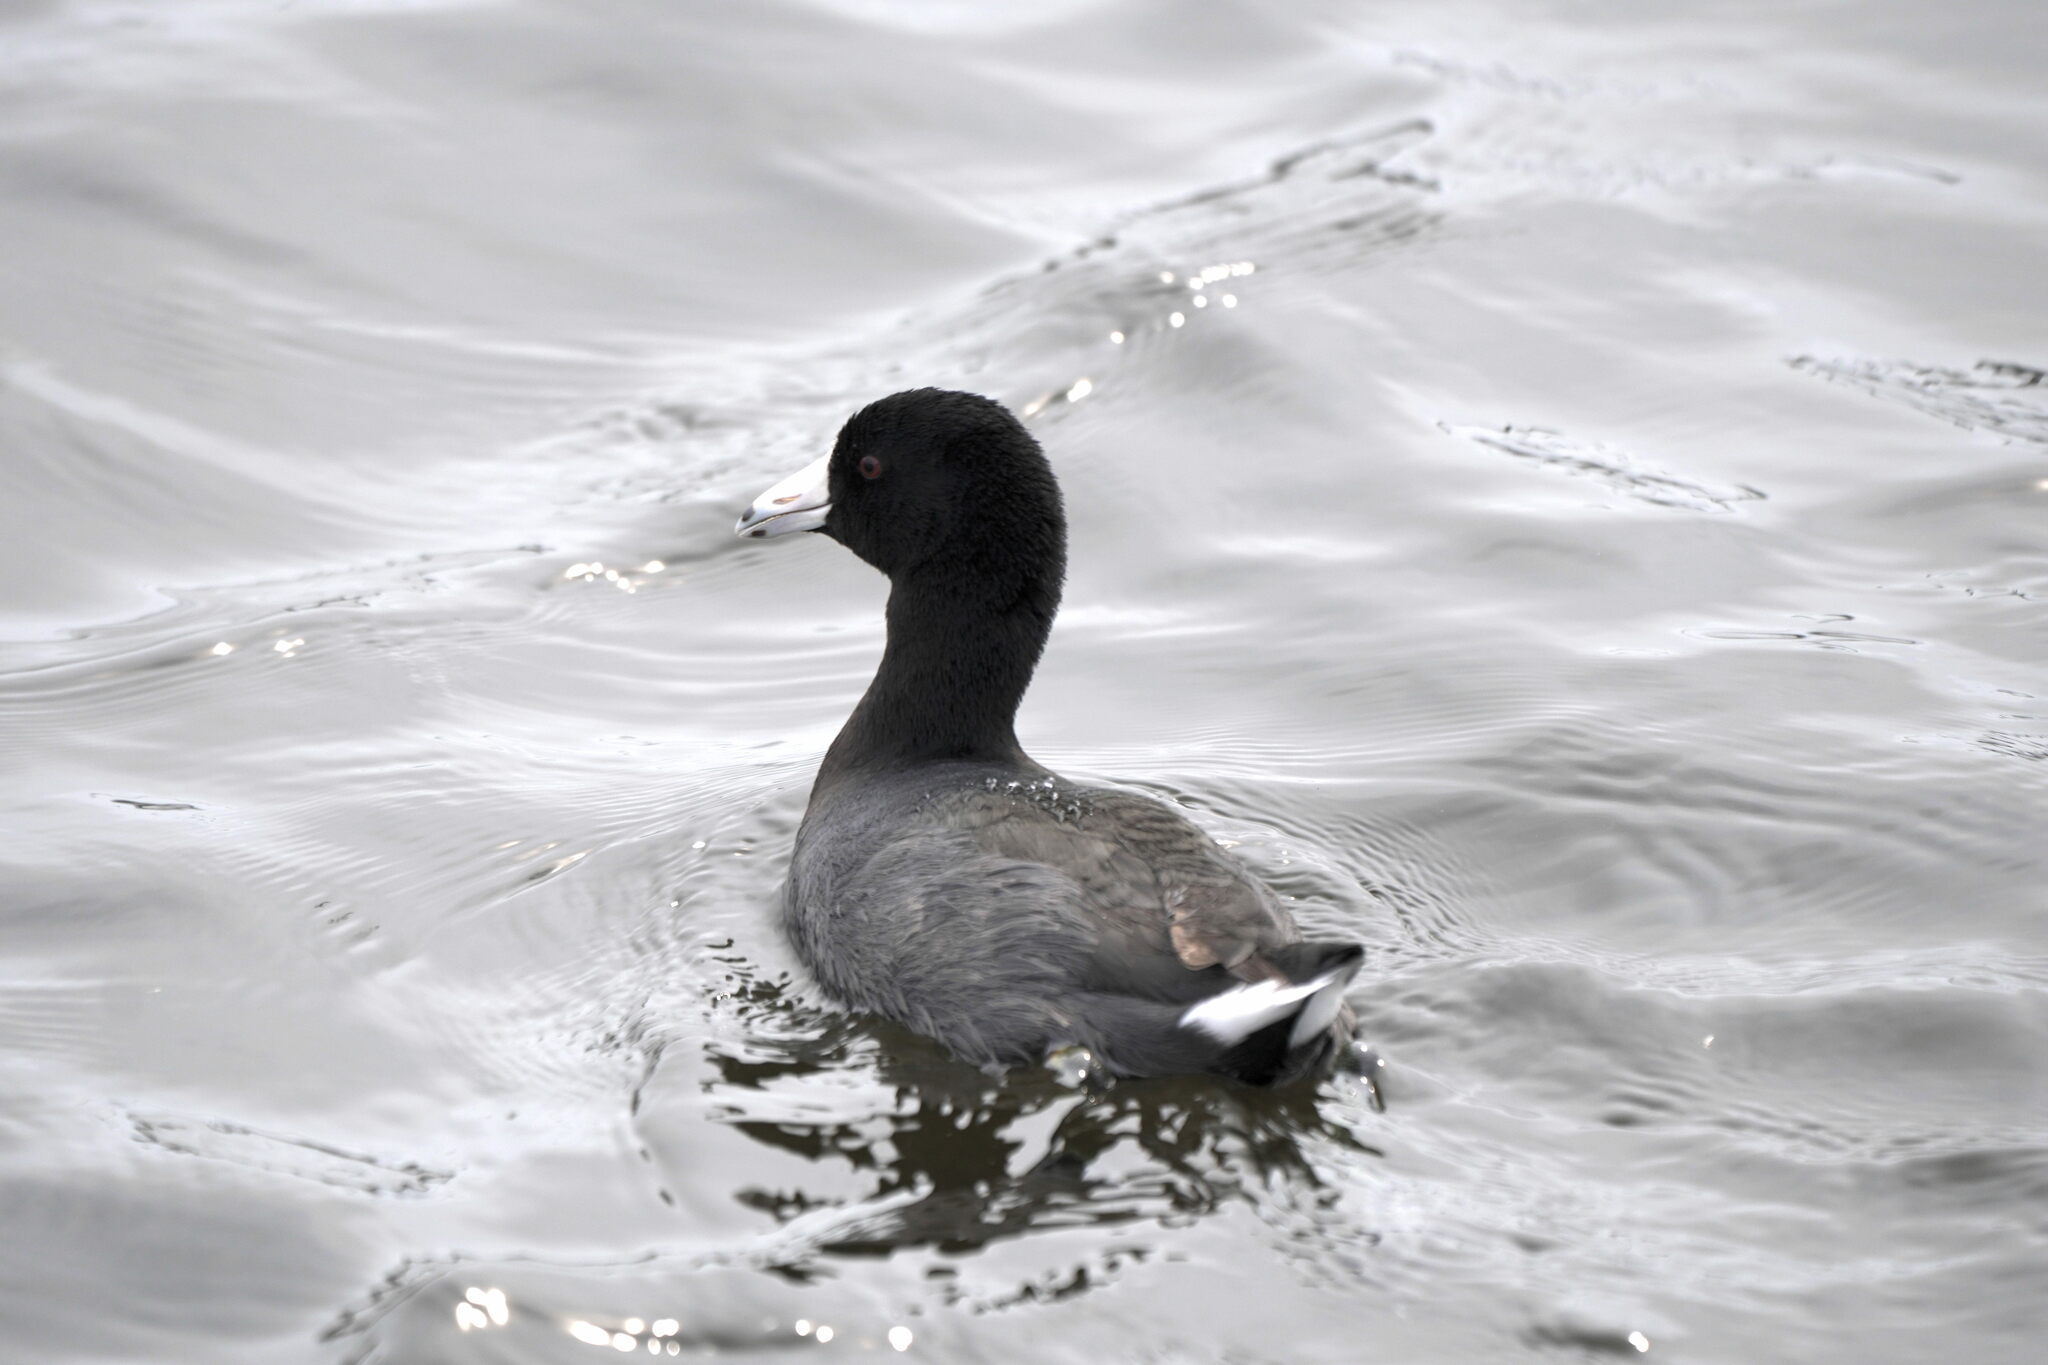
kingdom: Animalia
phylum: Chordata
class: Aves
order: Gruiformes
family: Rallidae
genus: Fulica
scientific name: Fulica americana
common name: American coot
